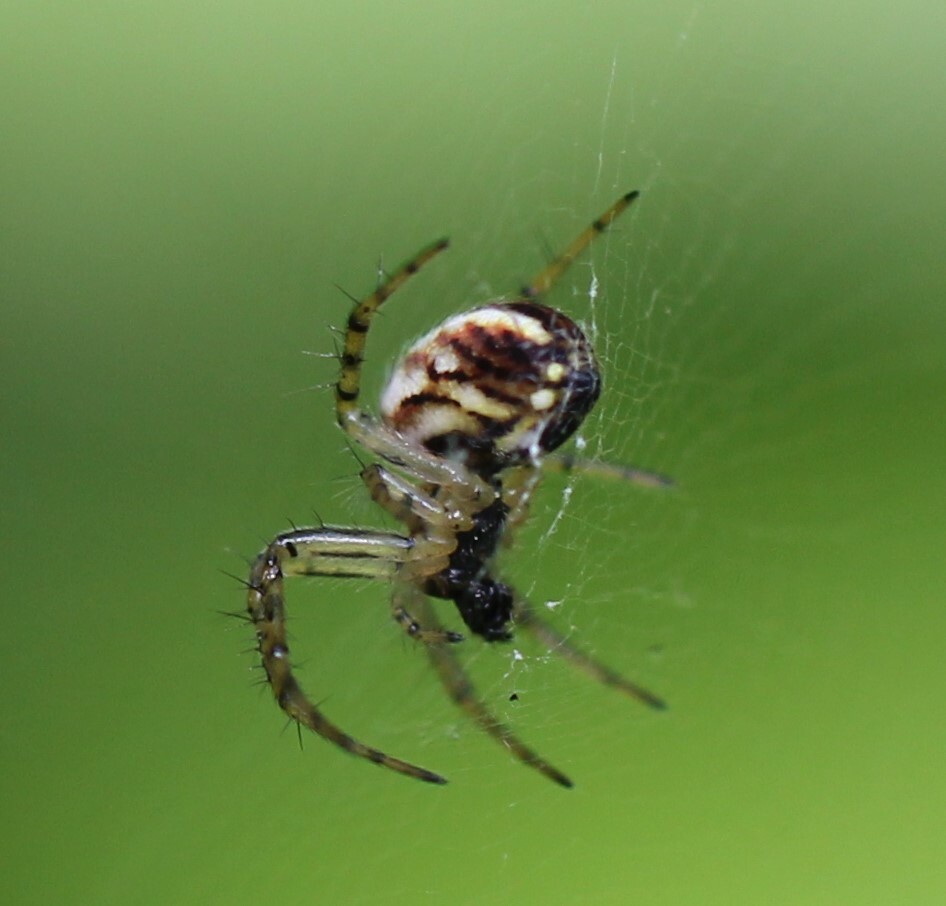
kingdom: Animalia
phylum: Arthropoda
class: Arachnida
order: Araneae
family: Araneidae
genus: Mangora
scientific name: Mangora acalypha
